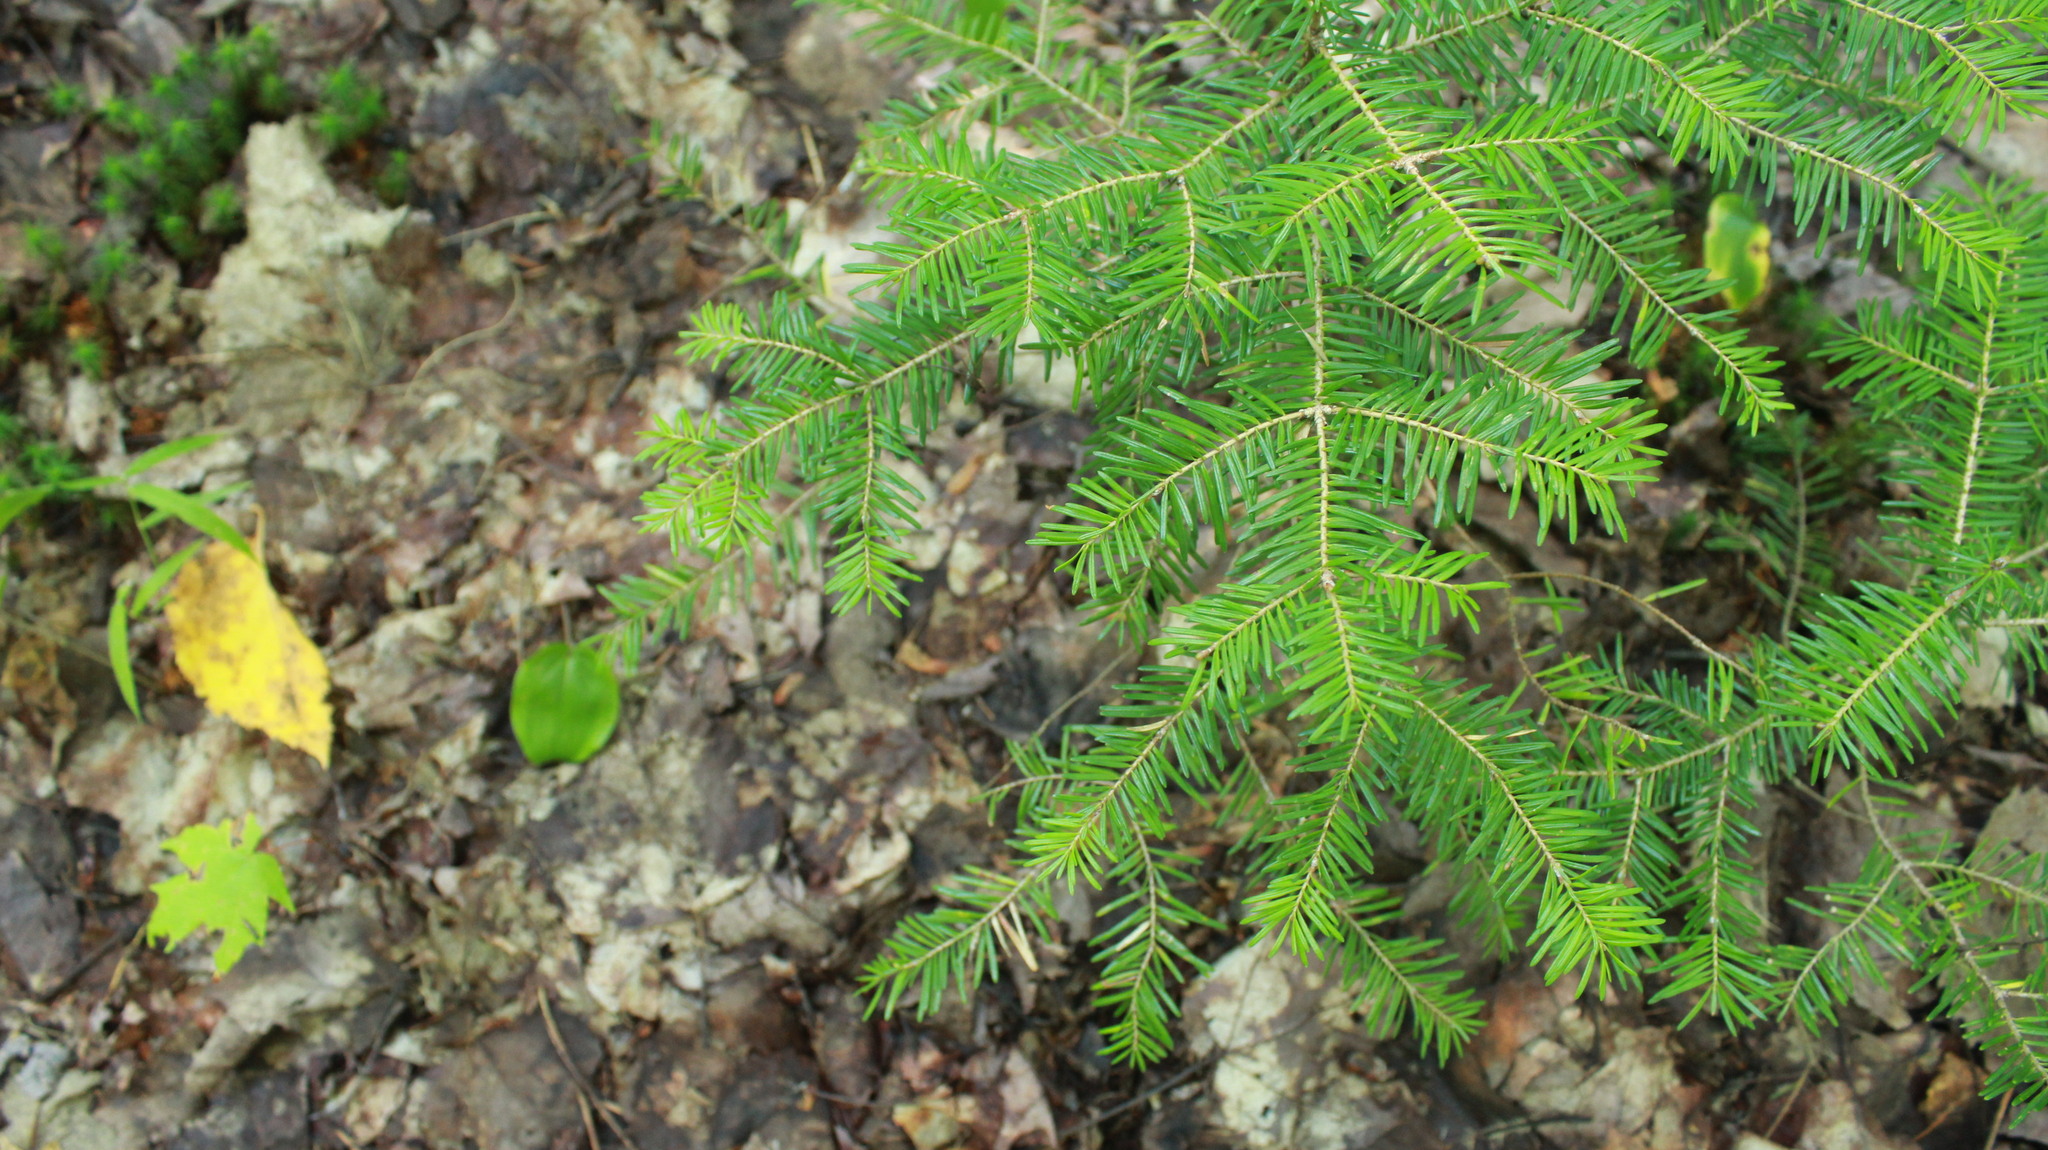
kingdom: Plantae
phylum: Tracheophyta
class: Pinopsida
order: Pinales
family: Pinaceae
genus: Abies
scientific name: Abies balsamea
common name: Balsam fir
